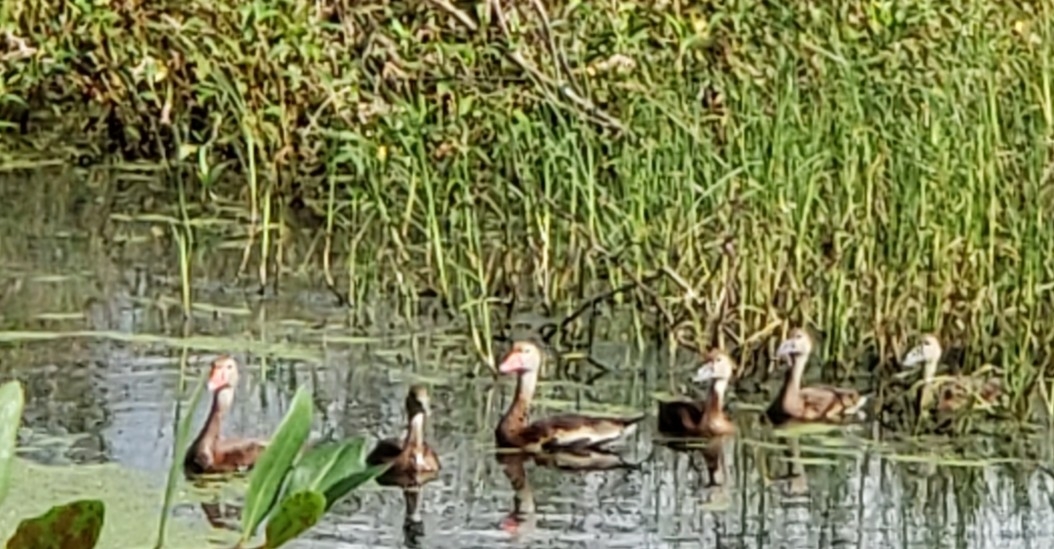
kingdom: Animalia
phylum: Chordata
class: Aves
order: Anseriformes
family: Anatidae
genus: Dendrocygna
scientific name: Dendrocygna autumnalis
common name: Black-bellied whistling duck
